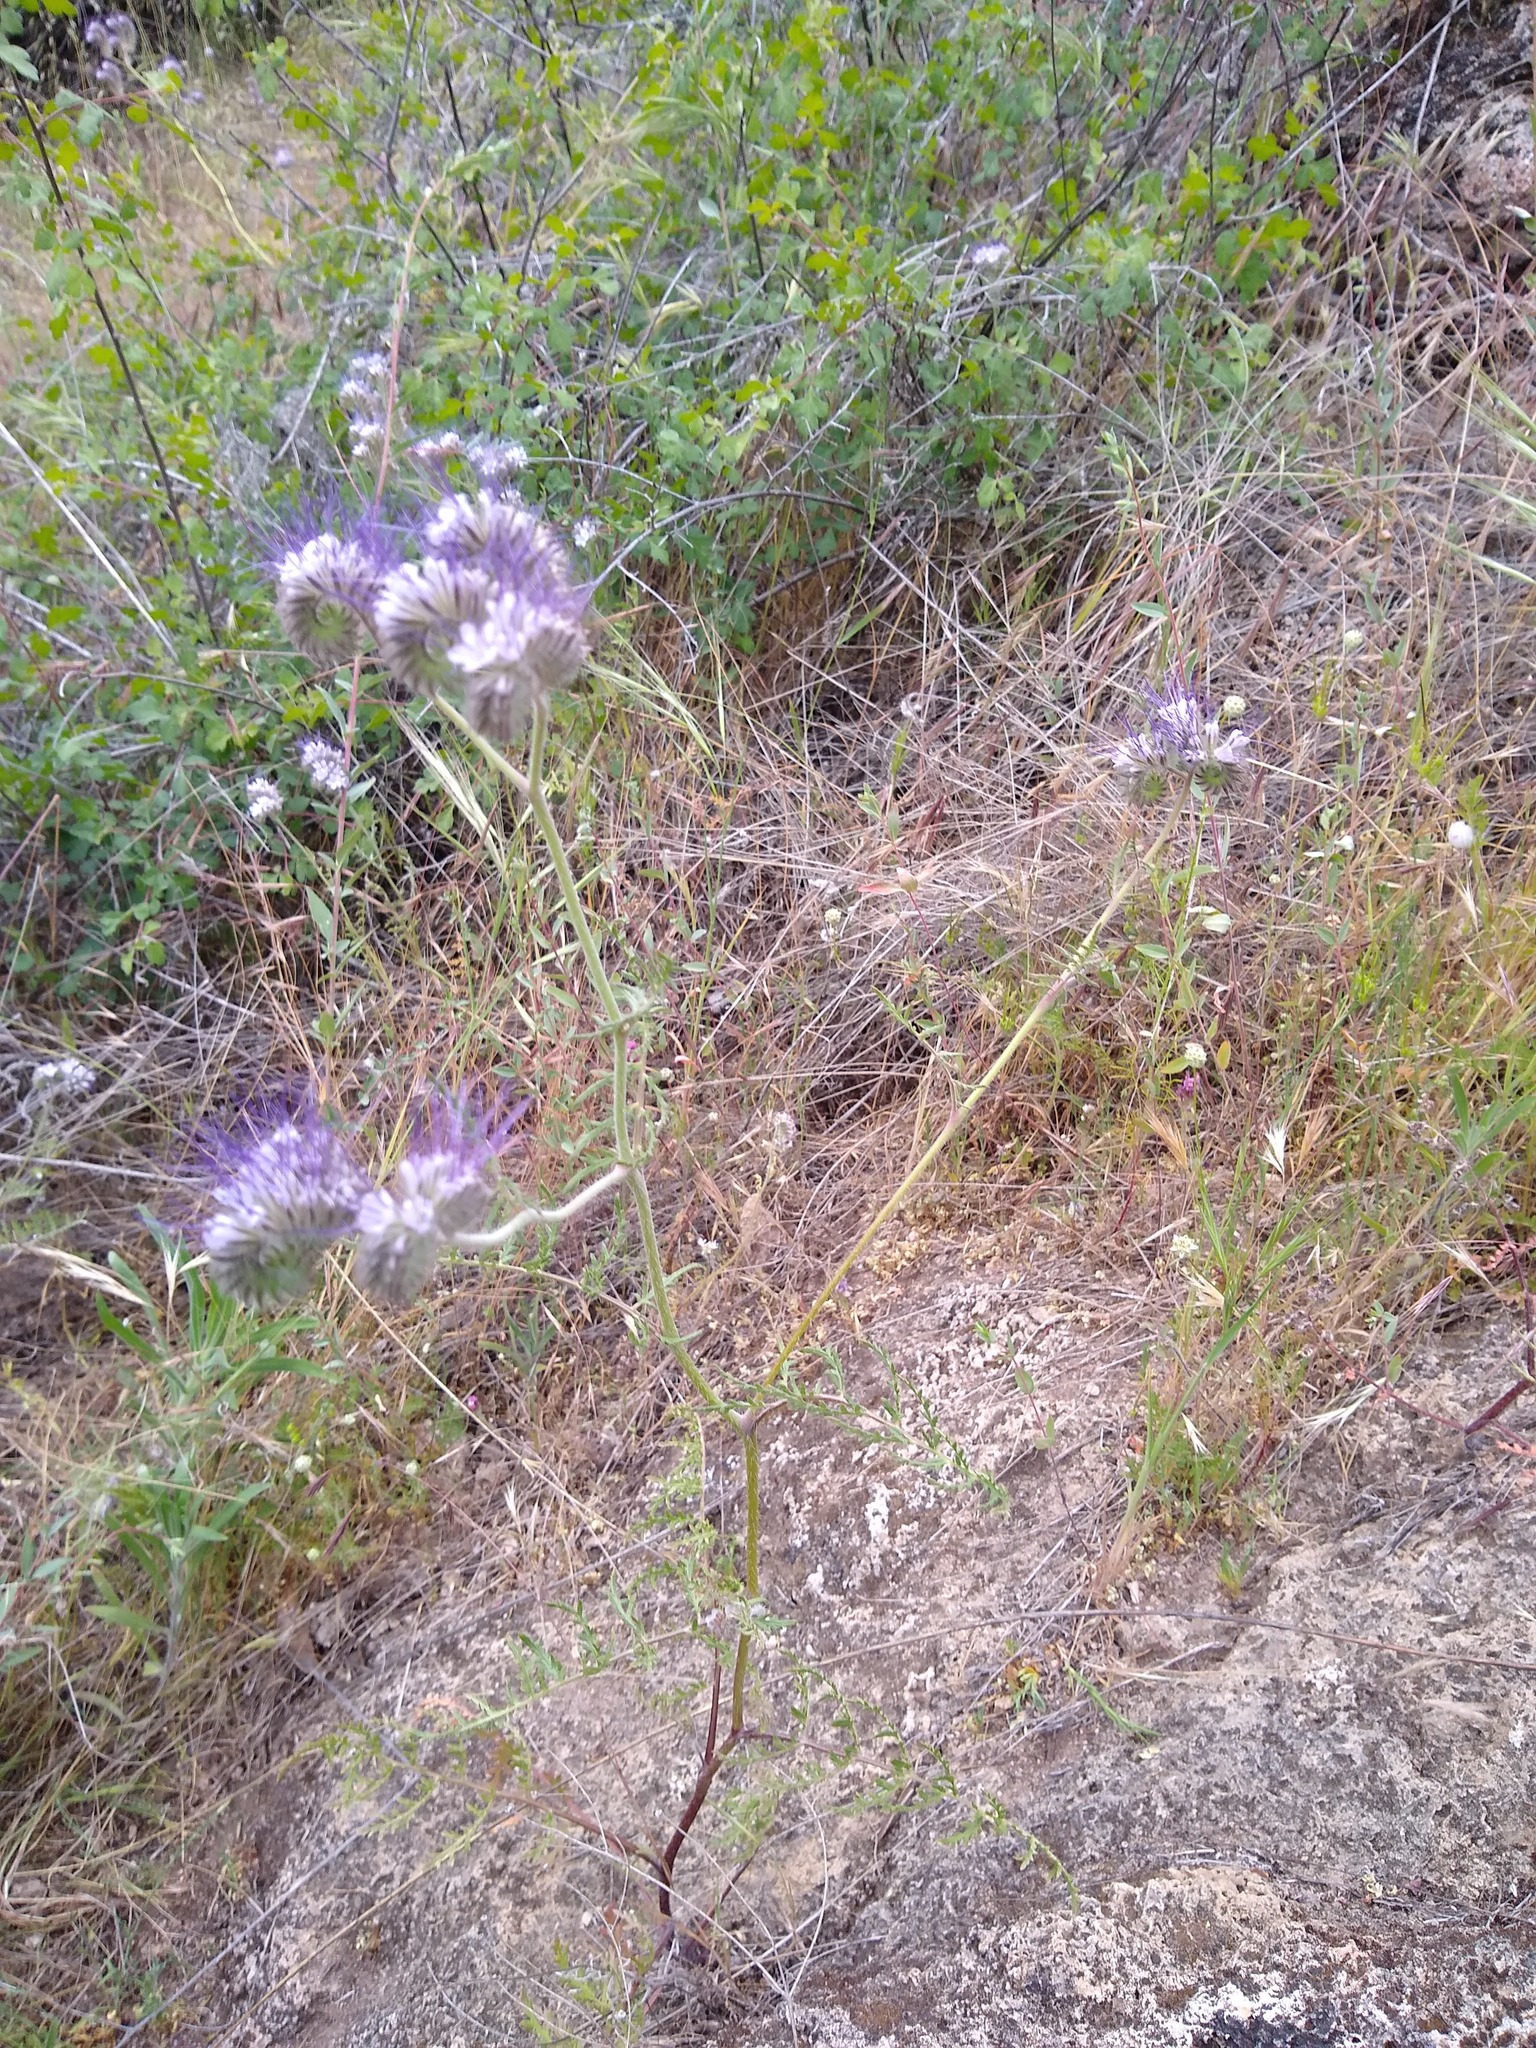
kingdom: Plantae
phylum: Tracheophyta
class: Magnoliopsida
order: Boraginales
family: Hydrophyllaceae
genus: Phacelia
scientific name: Phacelia tanacetifolia
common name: Phacelia
